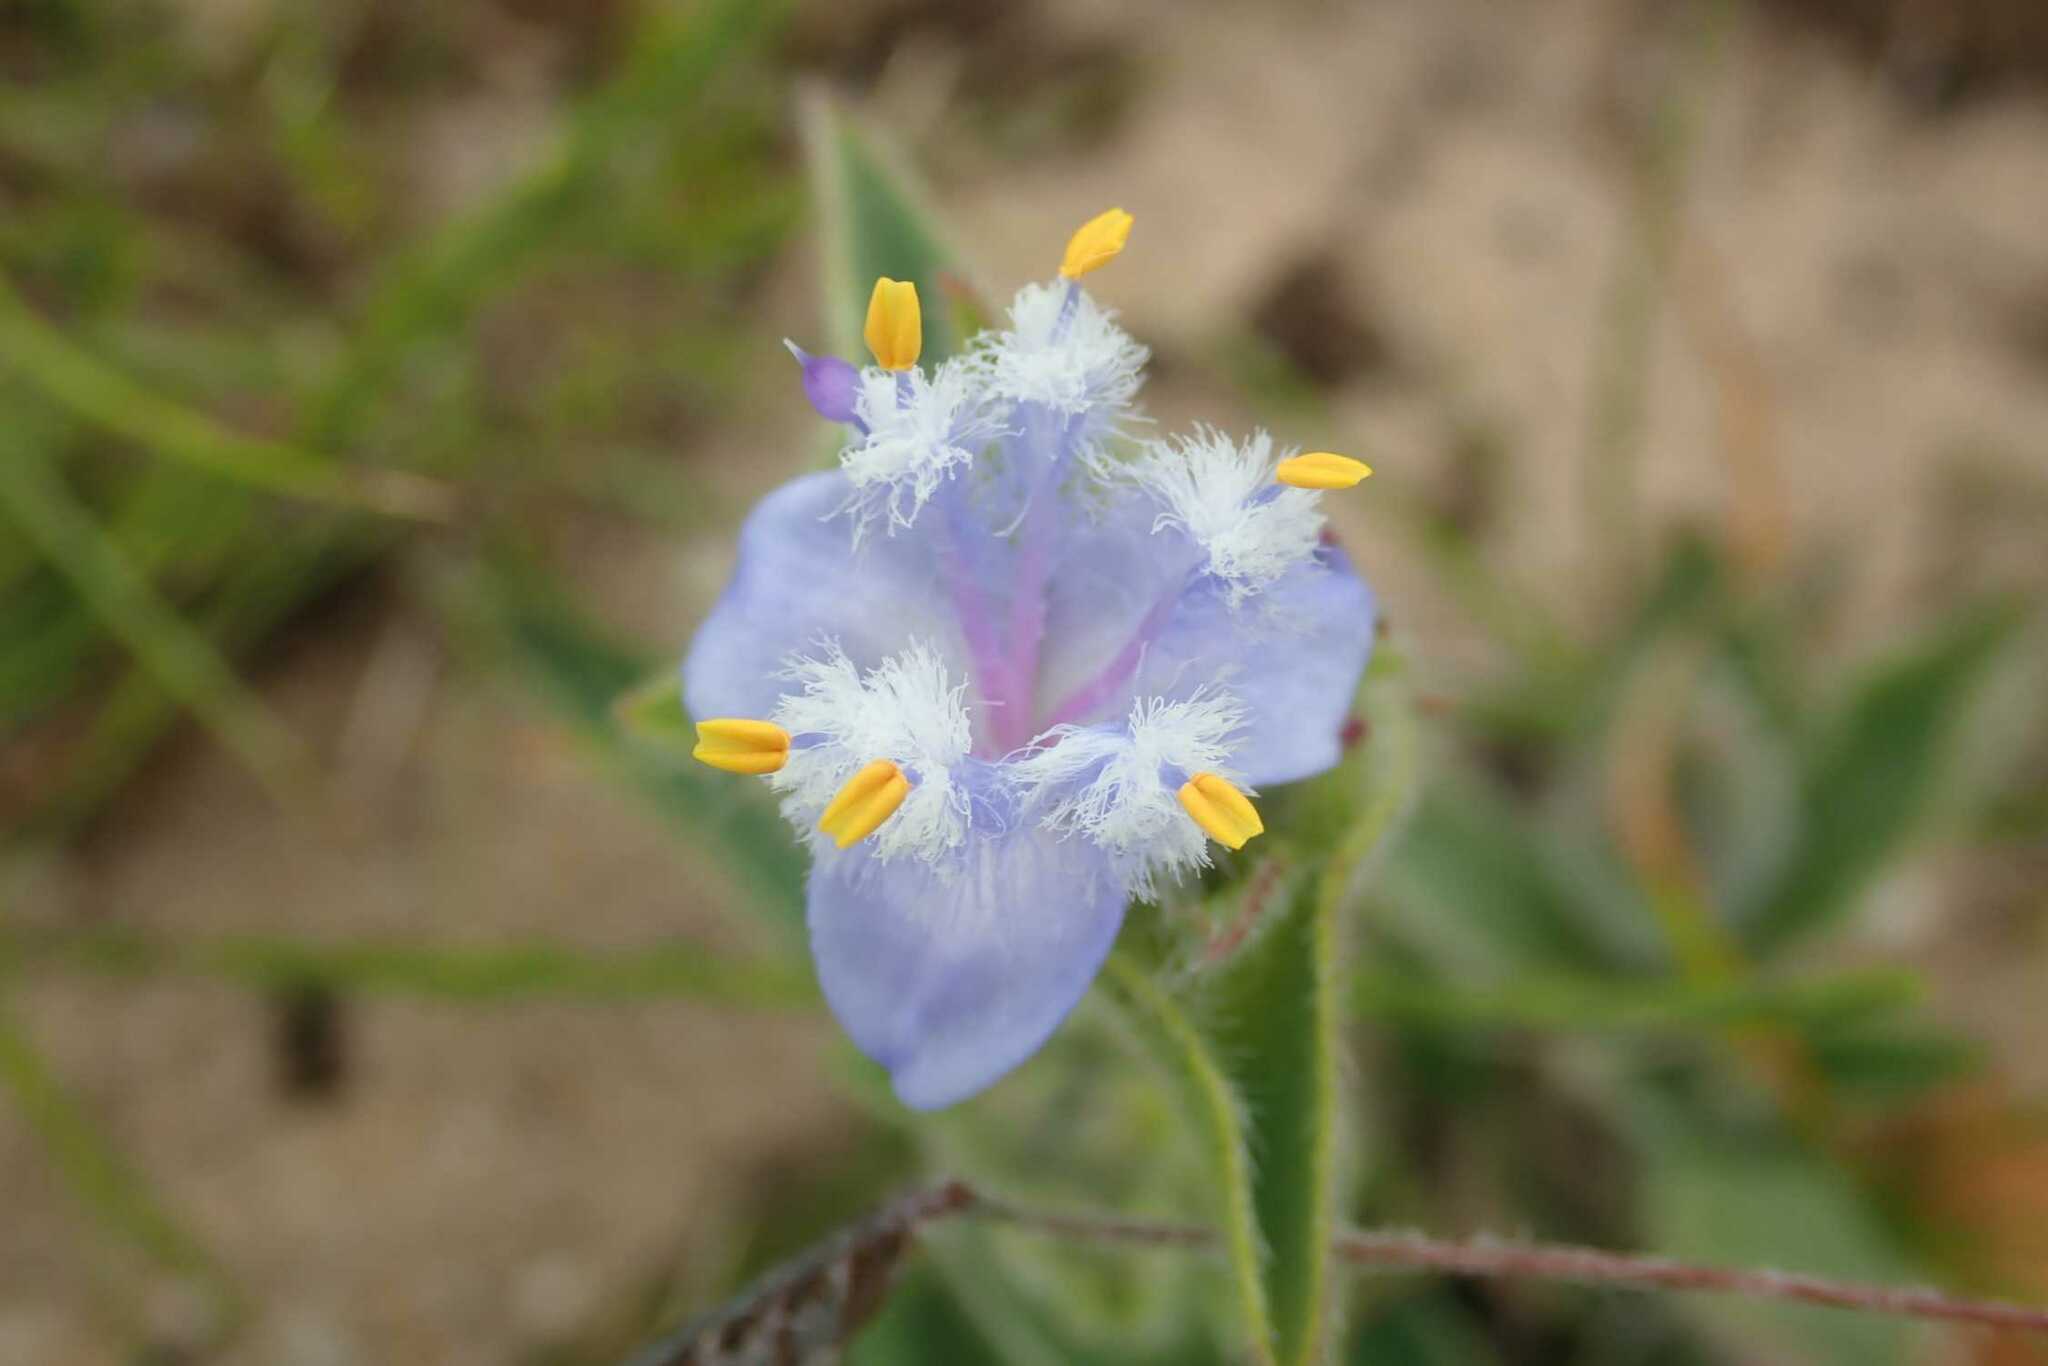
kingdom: Plantae
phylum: Tracheophyta
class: Liliopsida
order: Commelinales
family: Commelinaceae
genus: Cyanotis
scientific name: Cyanotis speciosa
